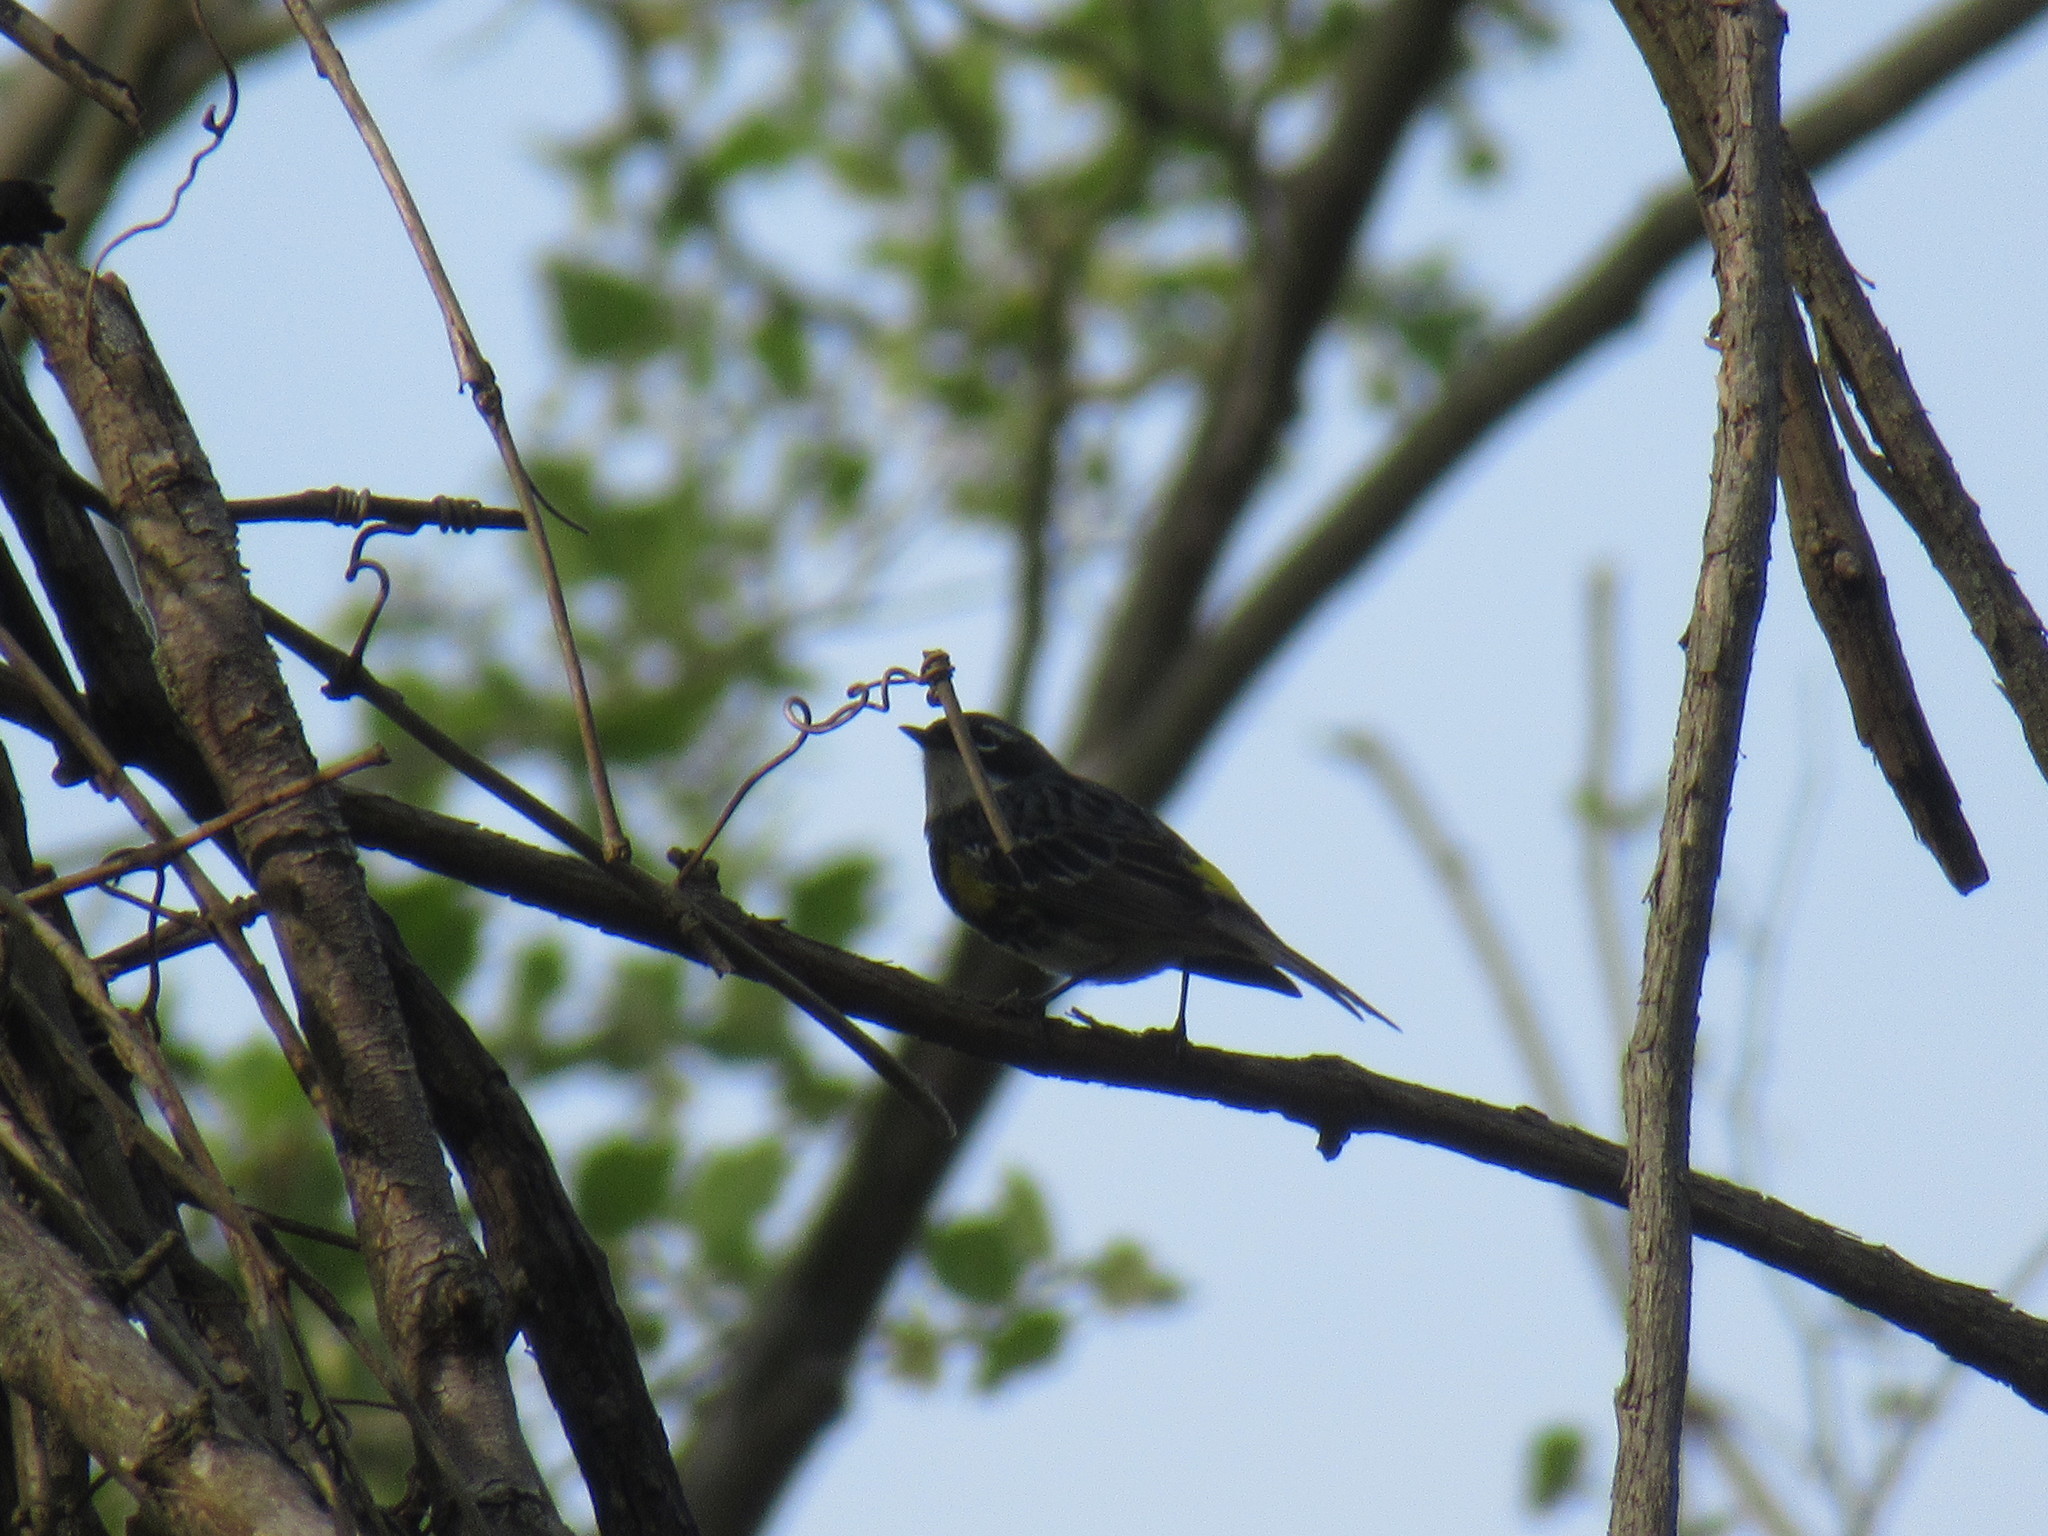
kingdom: Animalia
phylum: Chordata
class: Aves
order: Passeriformes
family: Parulidae
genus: Setophaga
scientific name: Setophaga coronata
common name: Myrtle warbler
